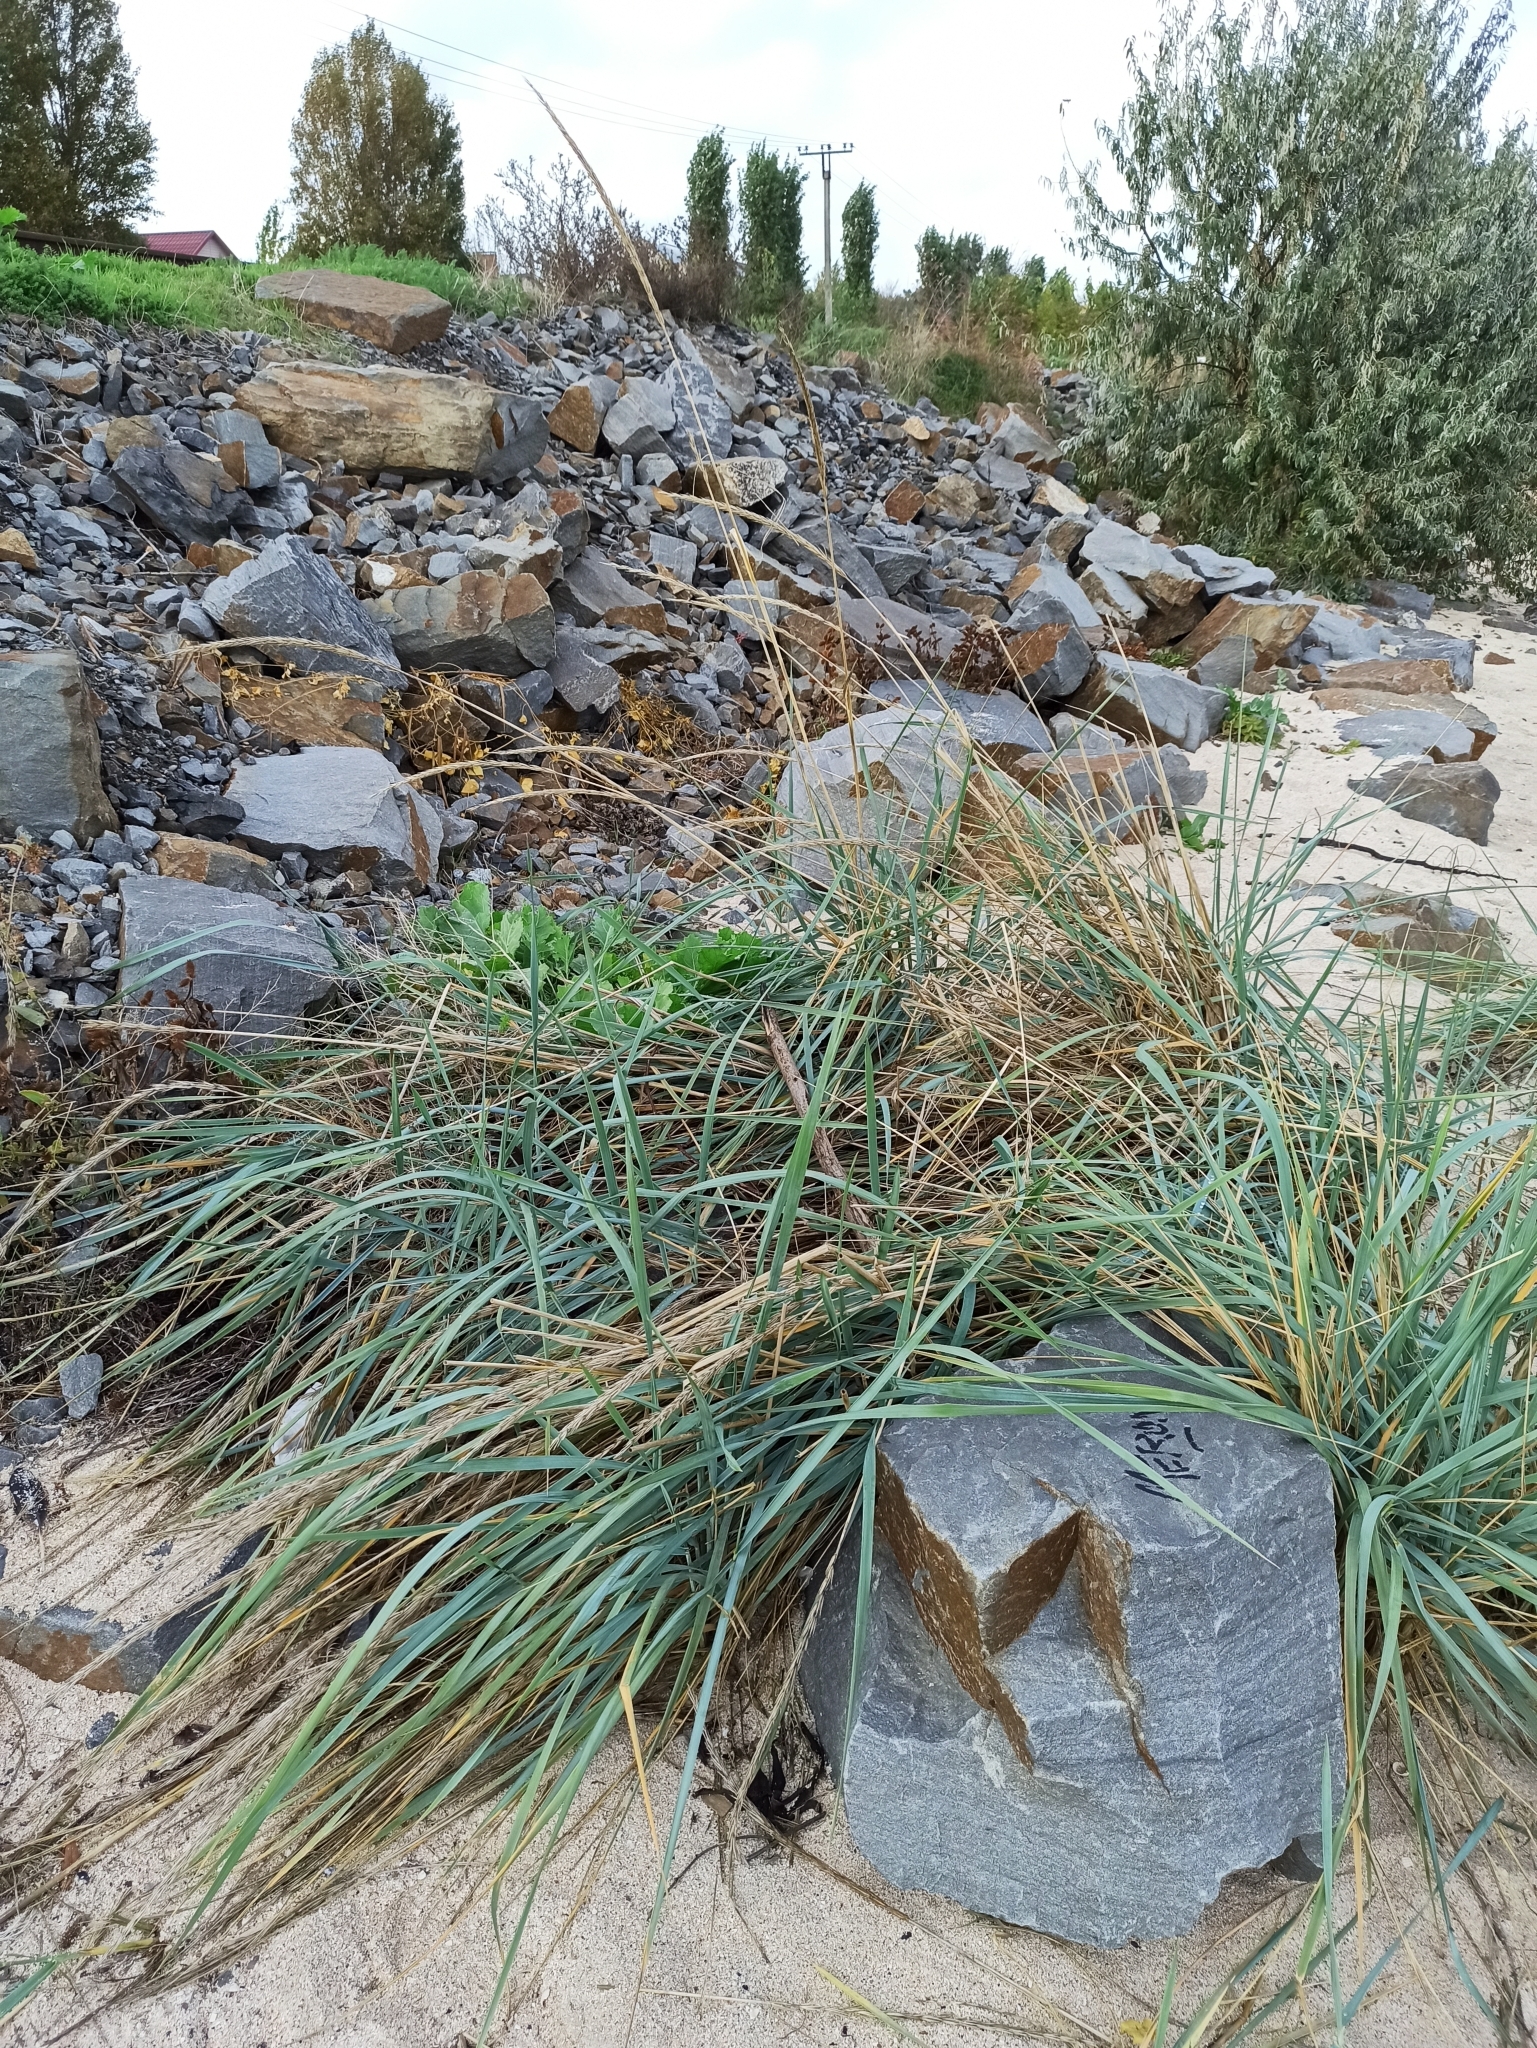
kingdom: Plantae
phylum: Tracheophyta
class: Liliopsida
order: Poales
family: Poaceae
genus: Leymus
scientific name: Leymus racemosus
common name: Mammoth wildrye
